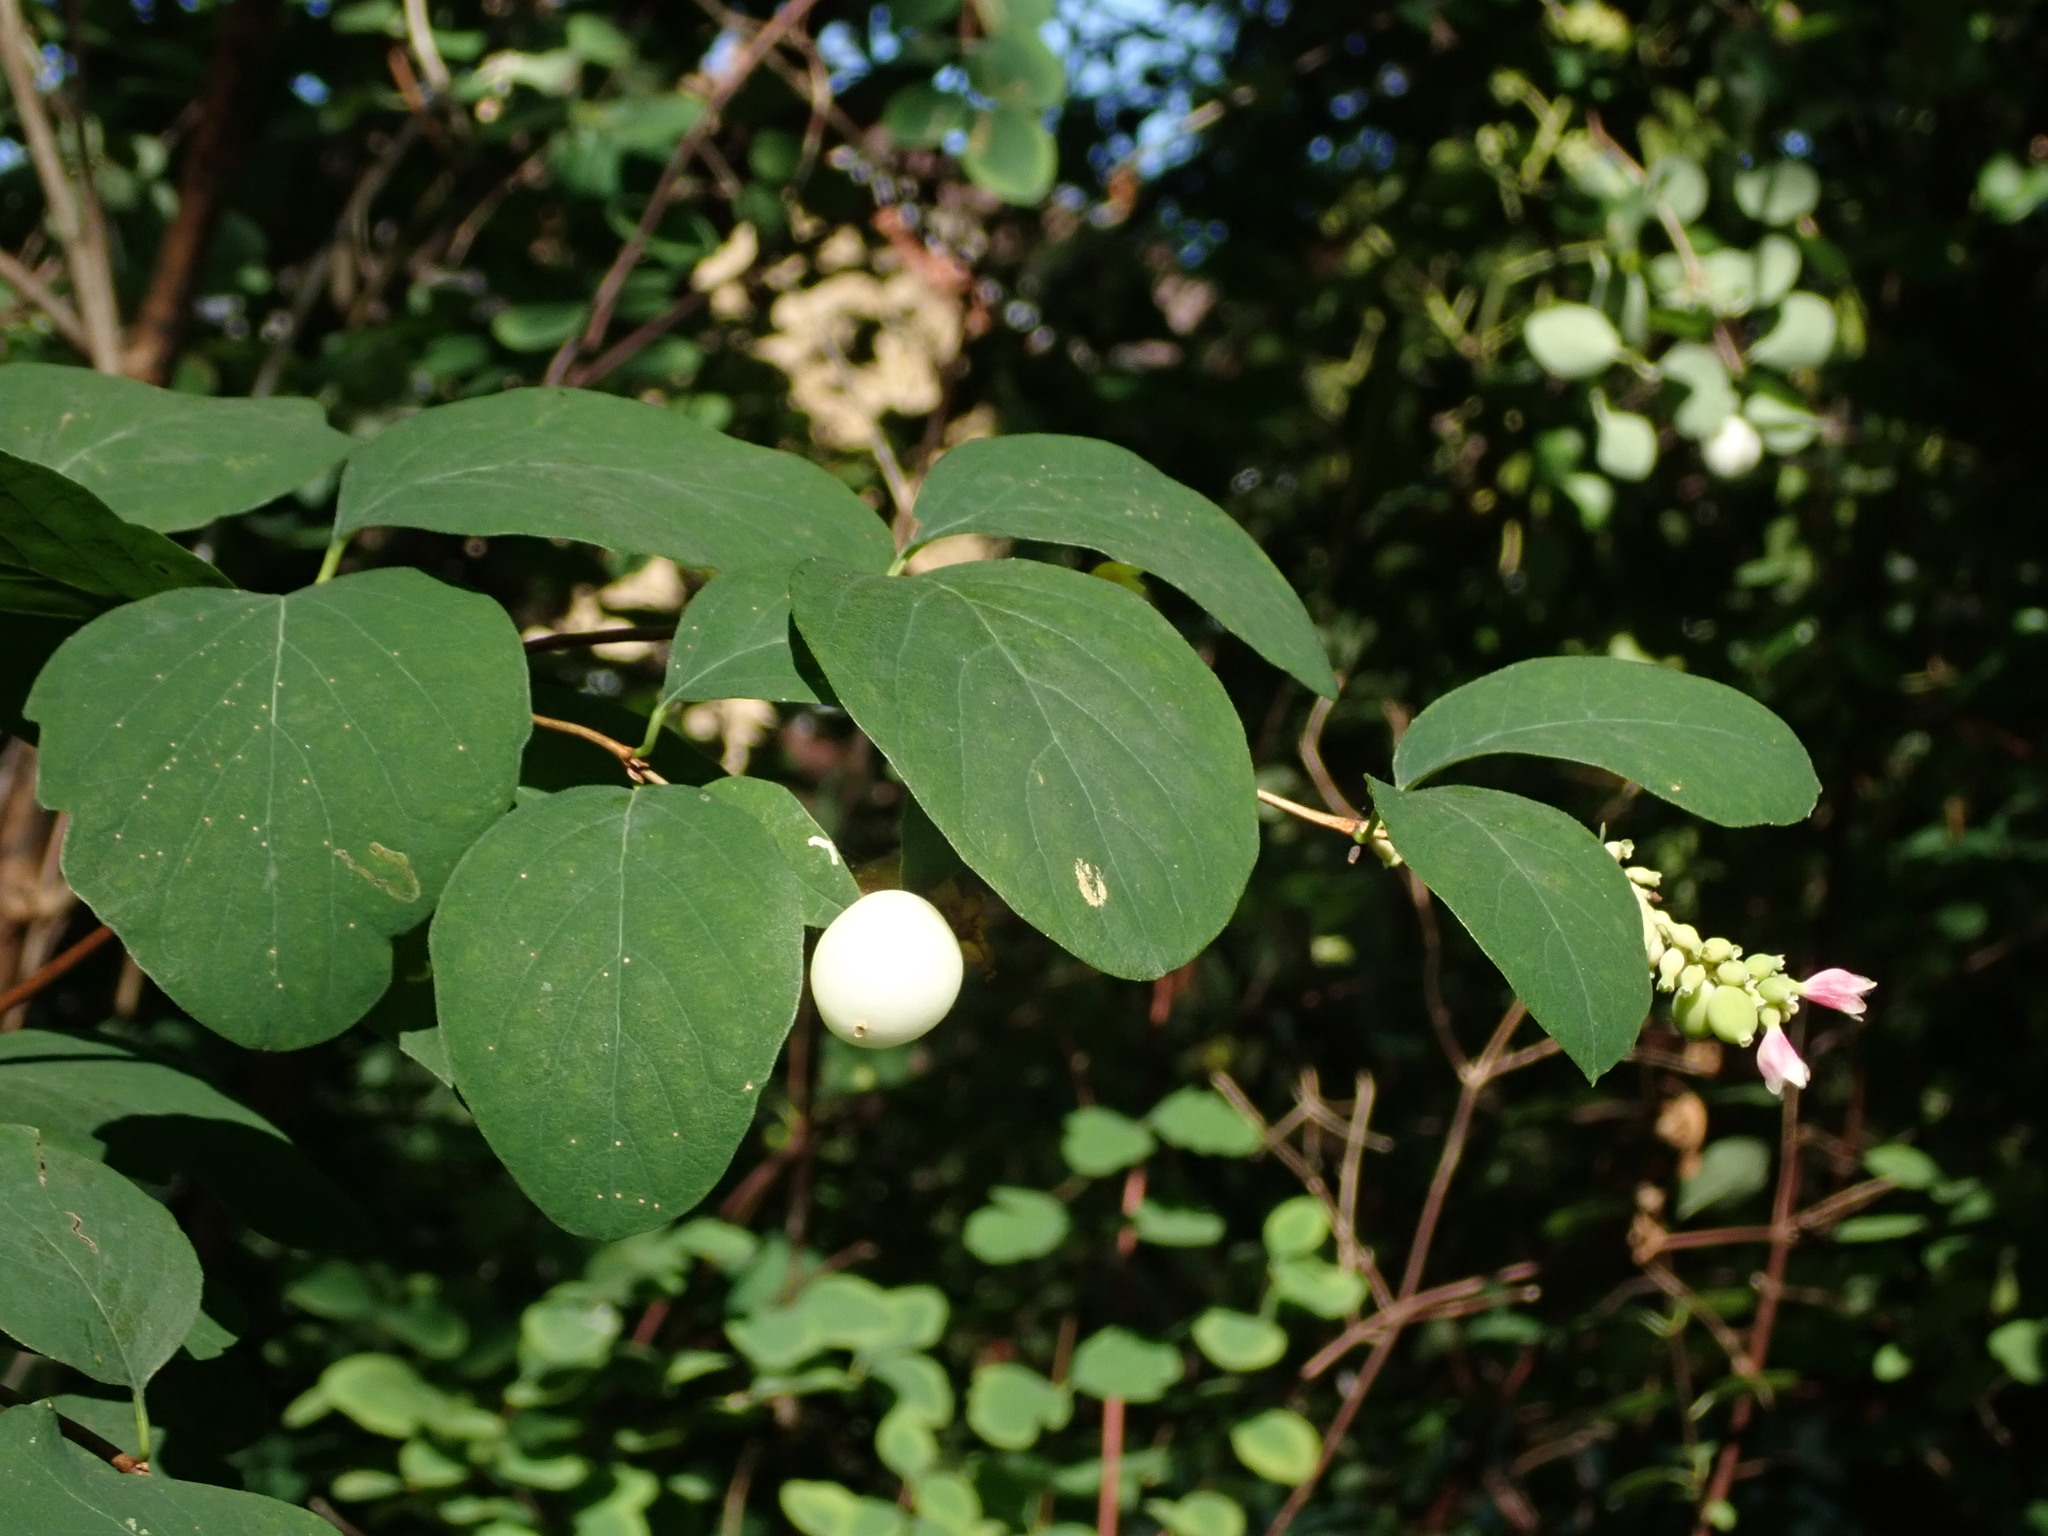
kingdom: Plantae
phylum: Tracheophyta
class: Magnoliopsida
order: Dipsacales
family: Caprifoliaceae
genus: Symphoricarpos
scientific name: Symphoricarpos albus
